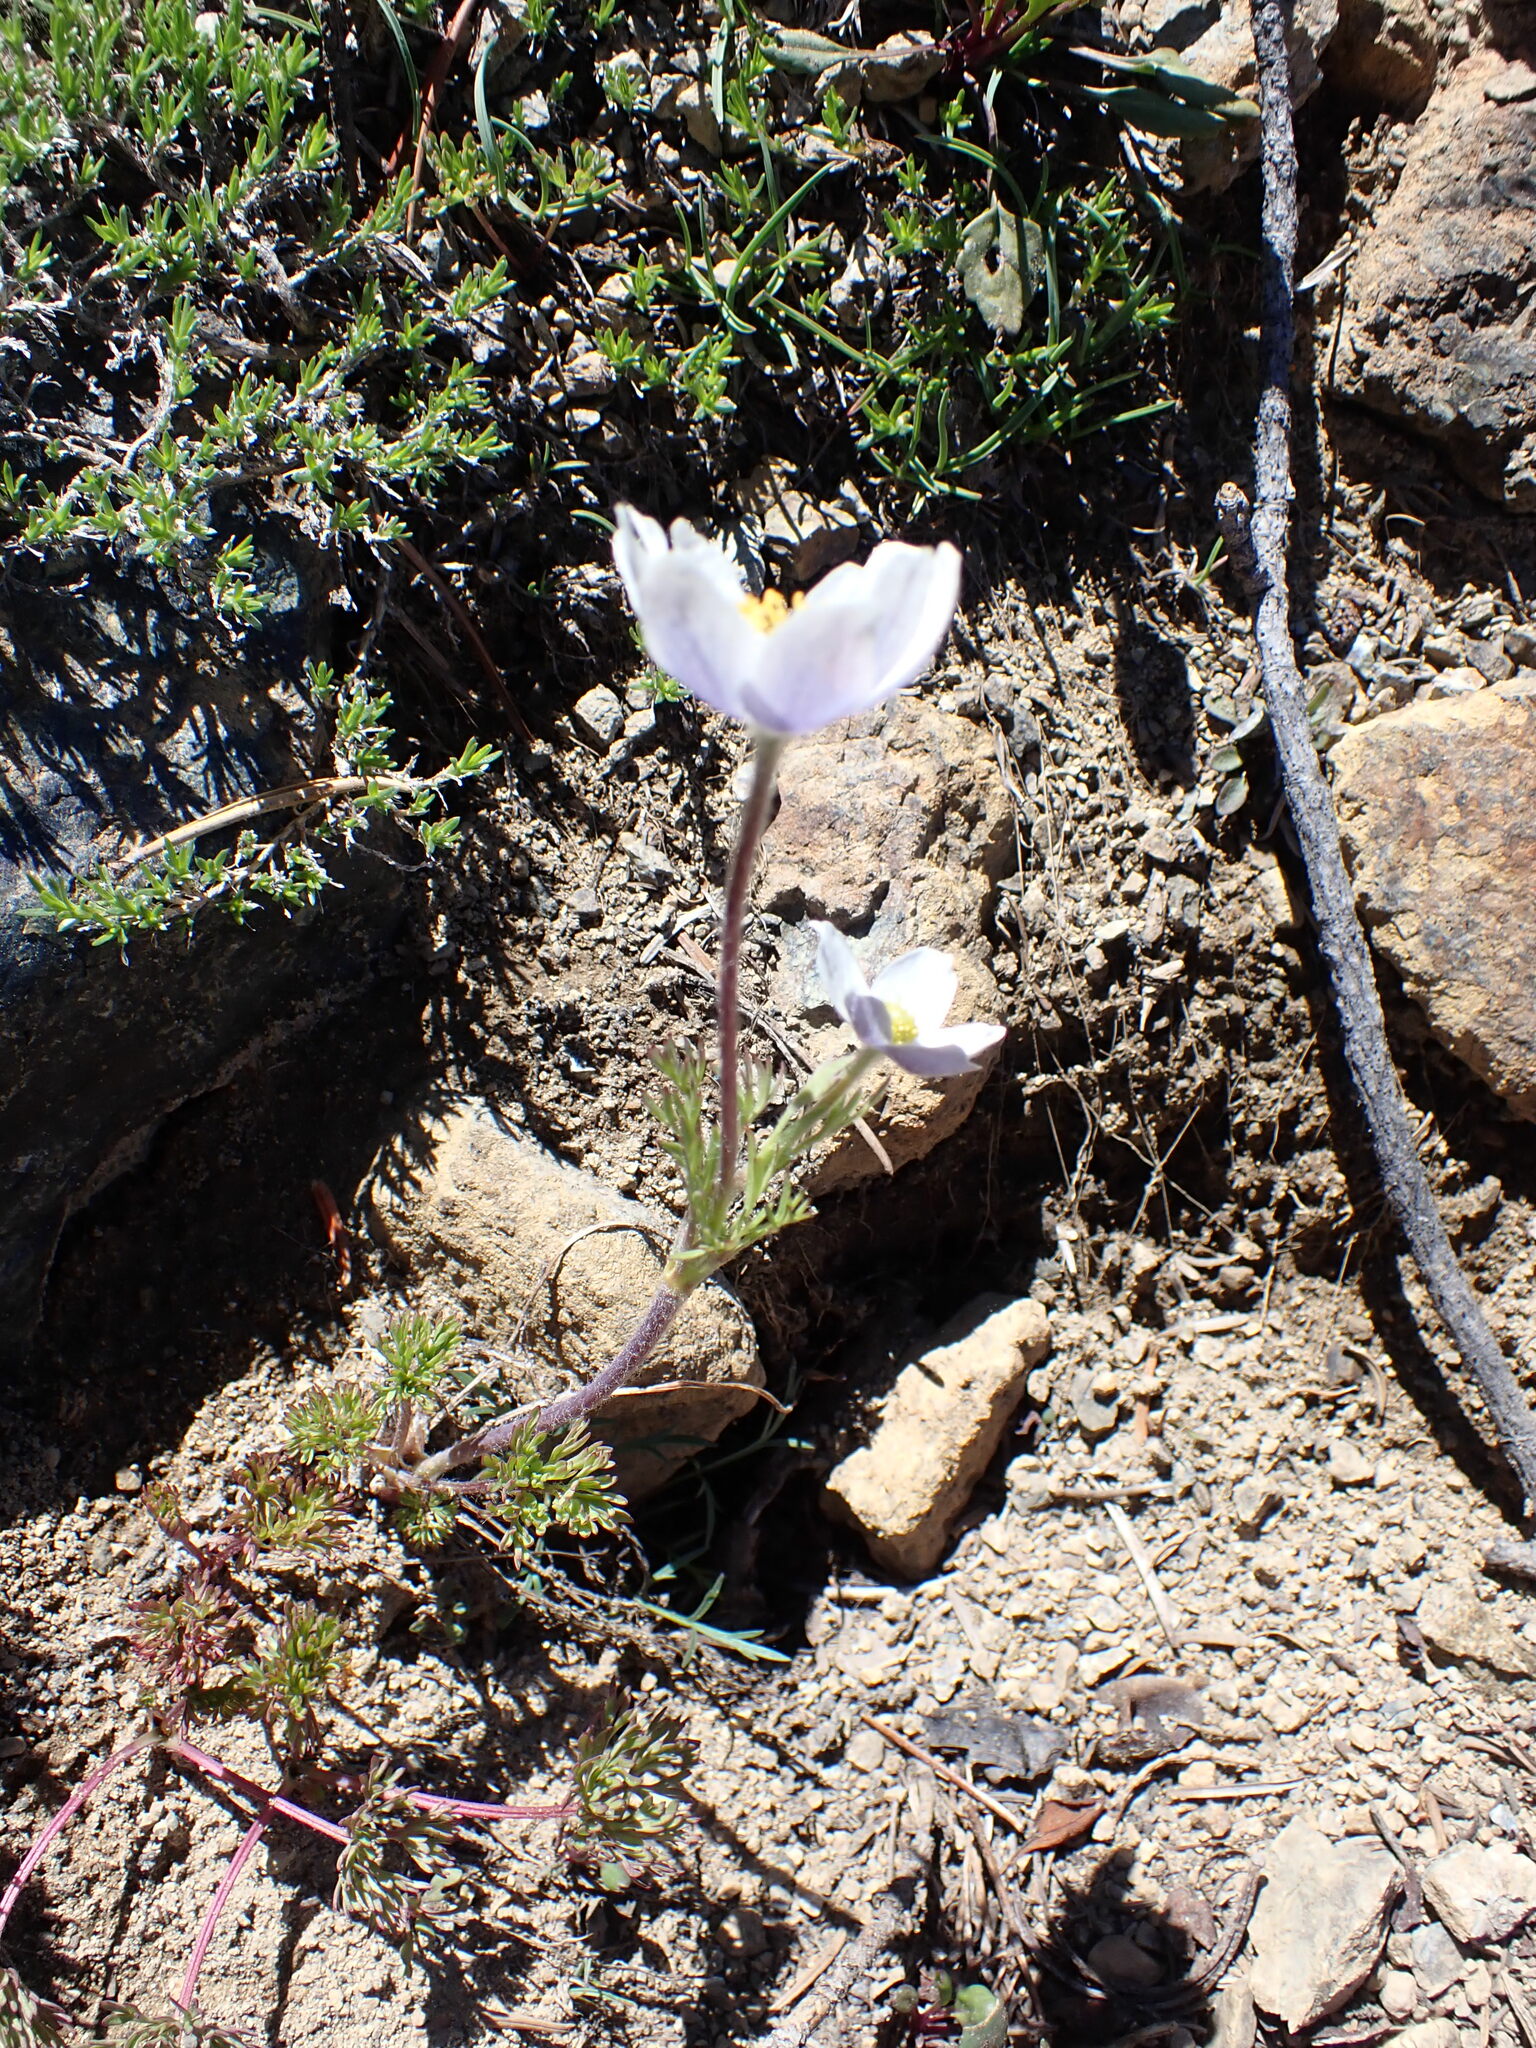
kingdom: Plantae
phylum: Tracheophyta
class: Magnoliopsida
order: Ranunculales
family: Ranunculaceae
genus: Anemone
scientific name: Anemone drummondii
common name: Drummond's anemone
